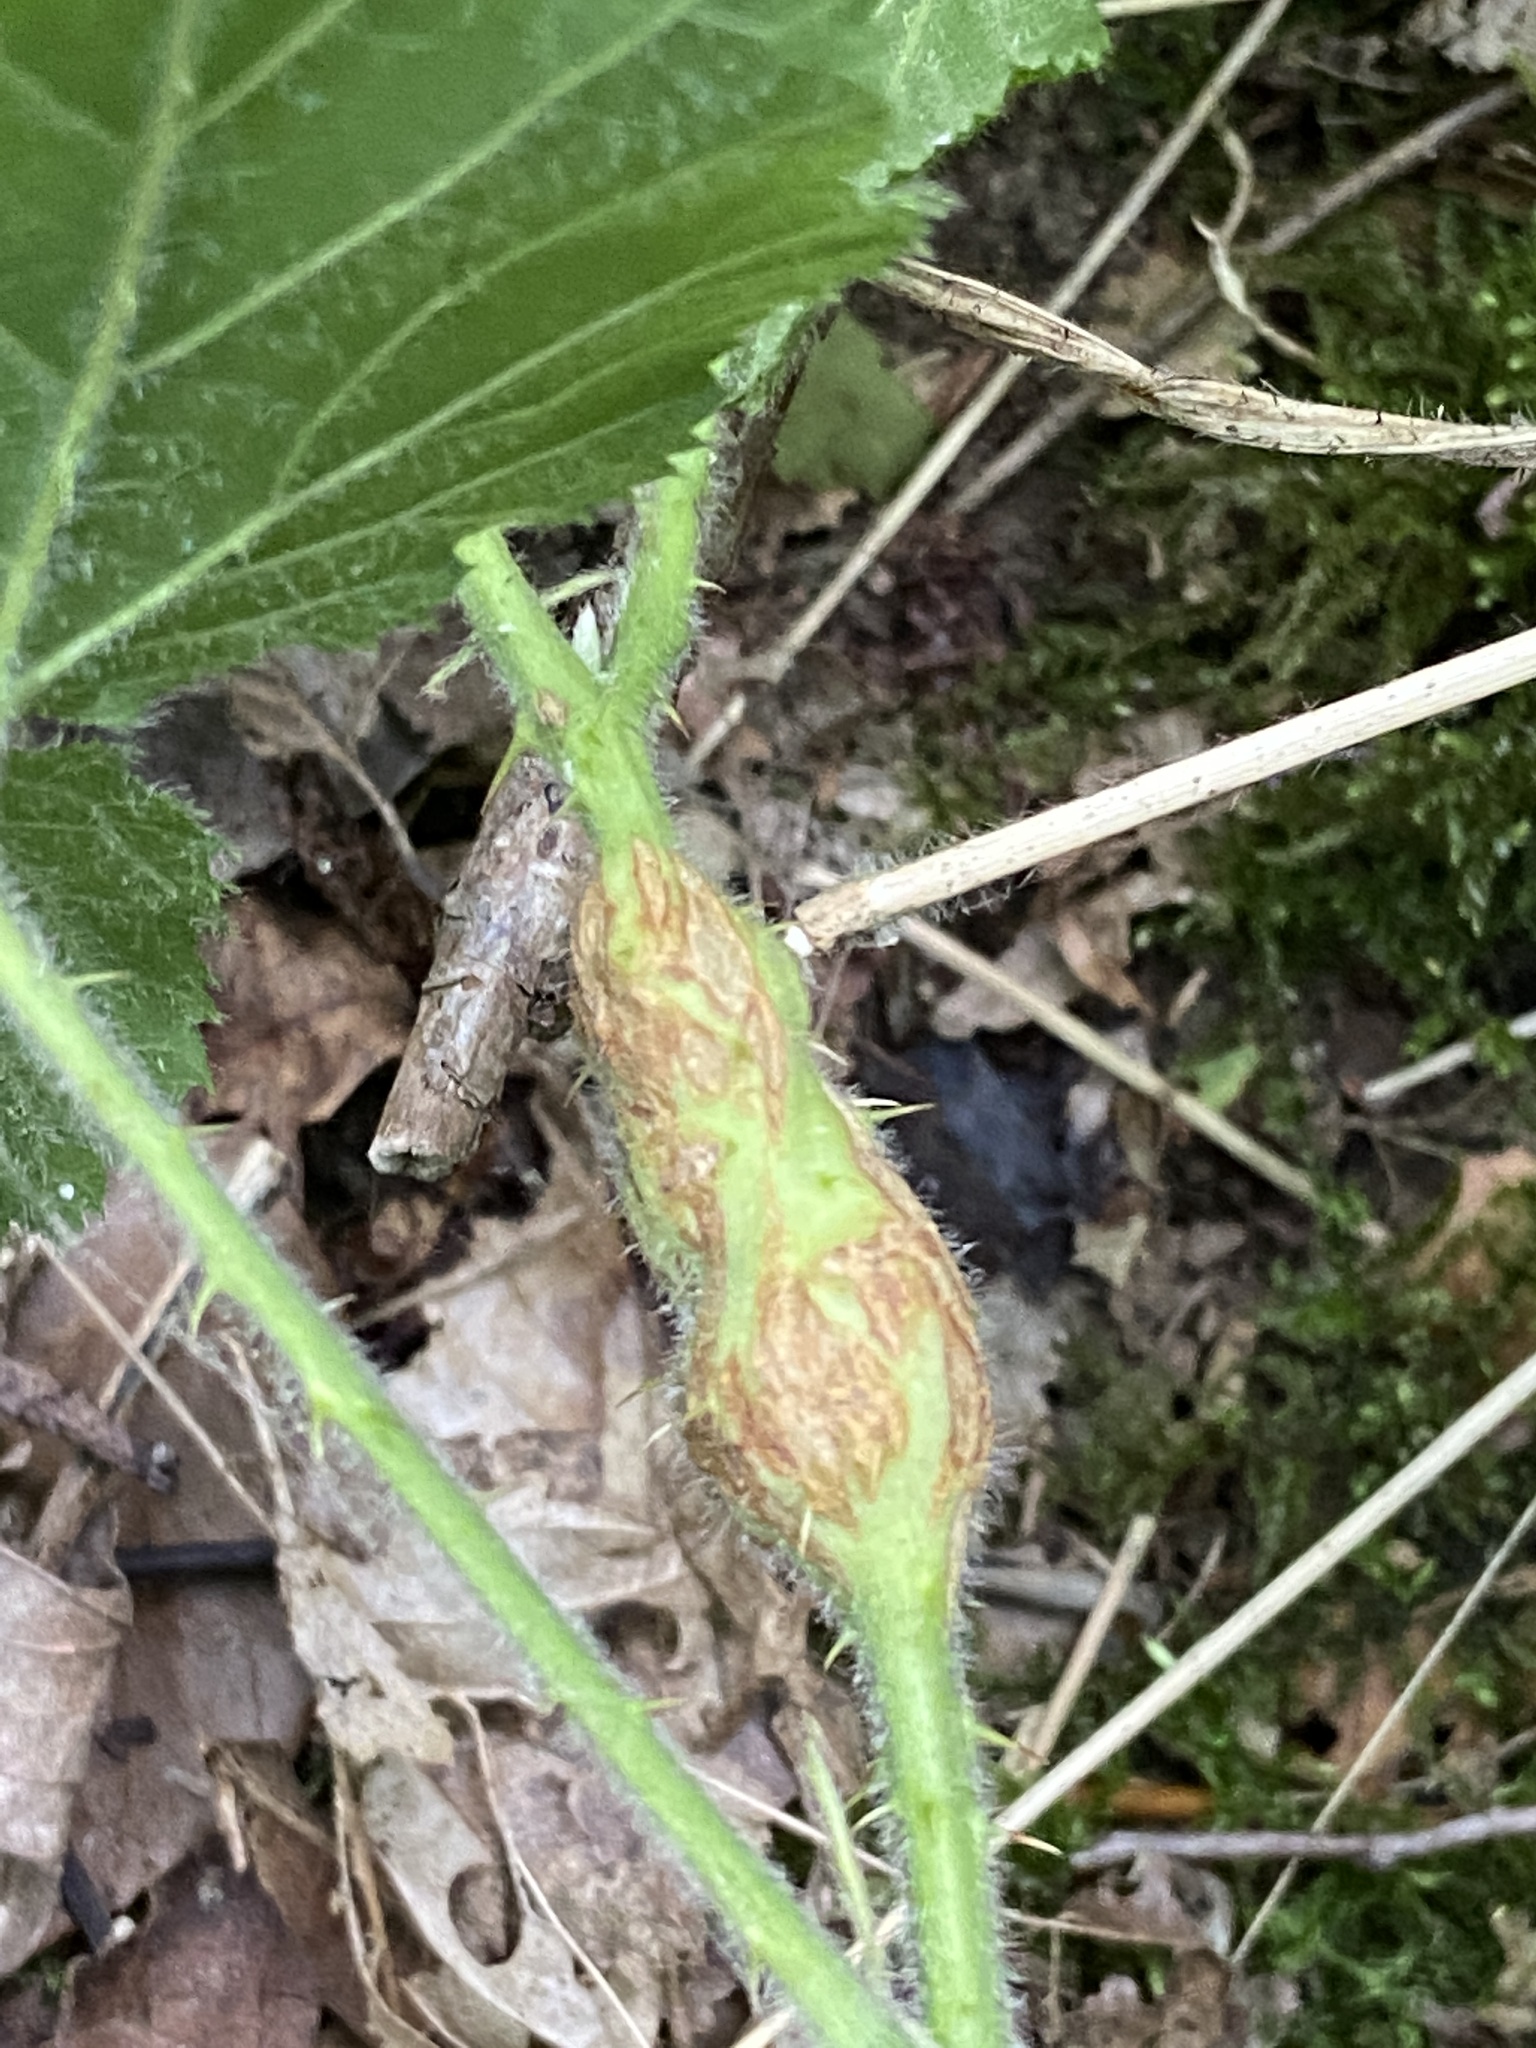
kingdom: Animalia
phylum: Arthropoda
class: Insecta
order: Diptera
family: Cecidomyiidae
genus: Lasioptera
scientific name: Lasioptera rubi
